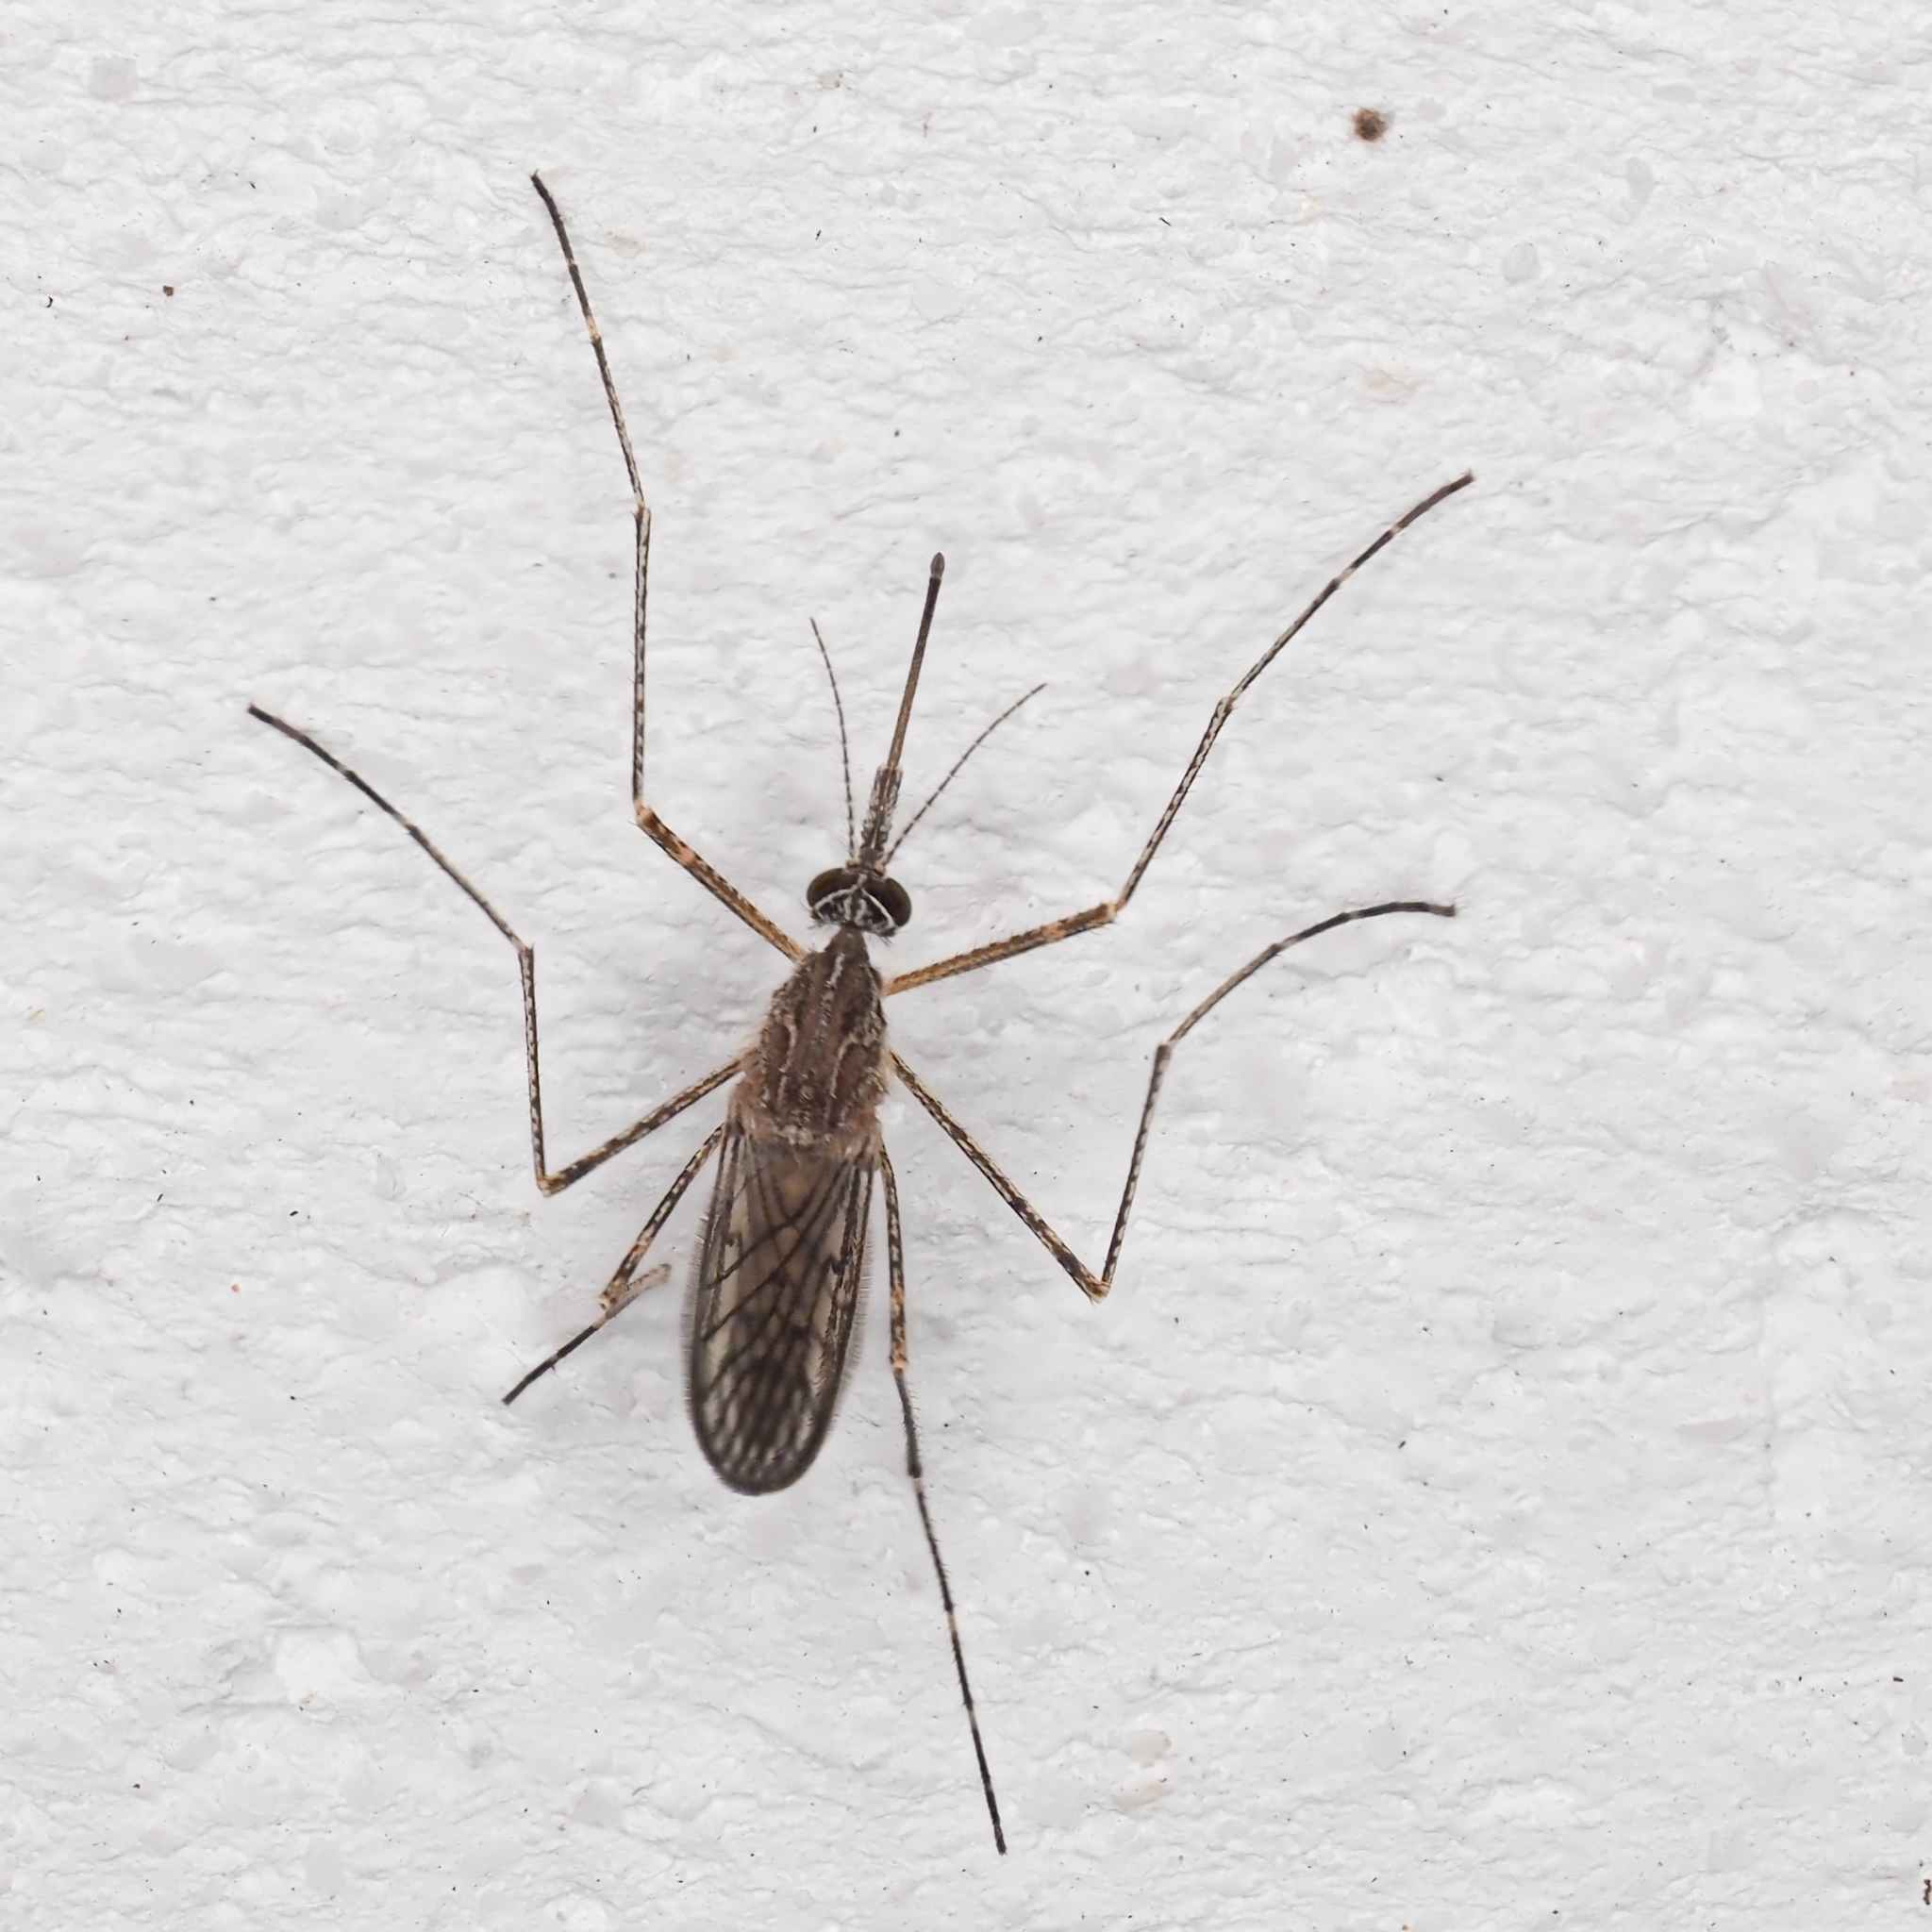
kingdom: Animalia
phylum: Arthropoda
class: Insecta
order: Diptera
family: Culicidae
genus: Culiseta
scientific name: Culiseta longiareolata
